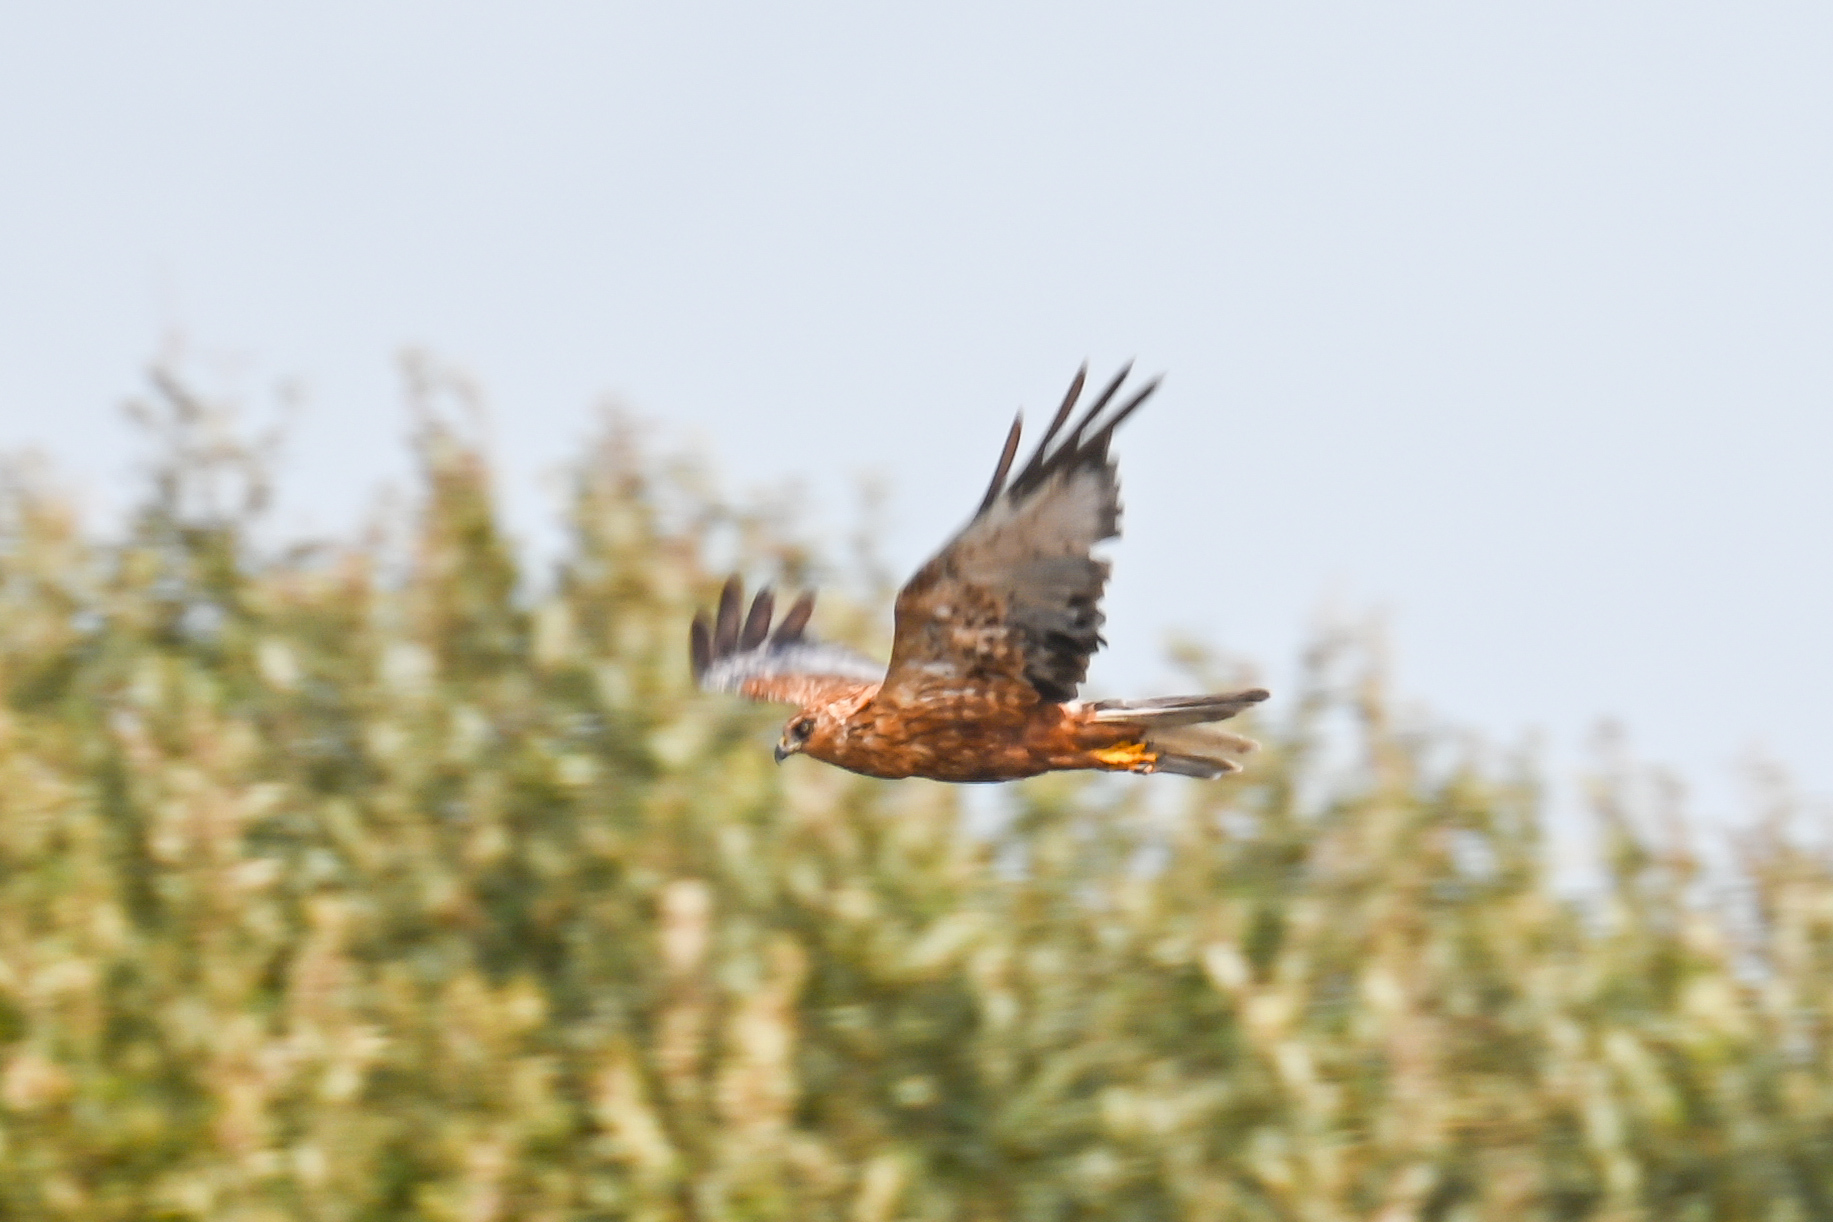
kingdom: Animalia
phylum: Chordata
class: Aves
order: Accipitriformes
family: Accipitridae
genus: Circus
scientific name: Circus aeruginosus
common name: Western marsh harrier
